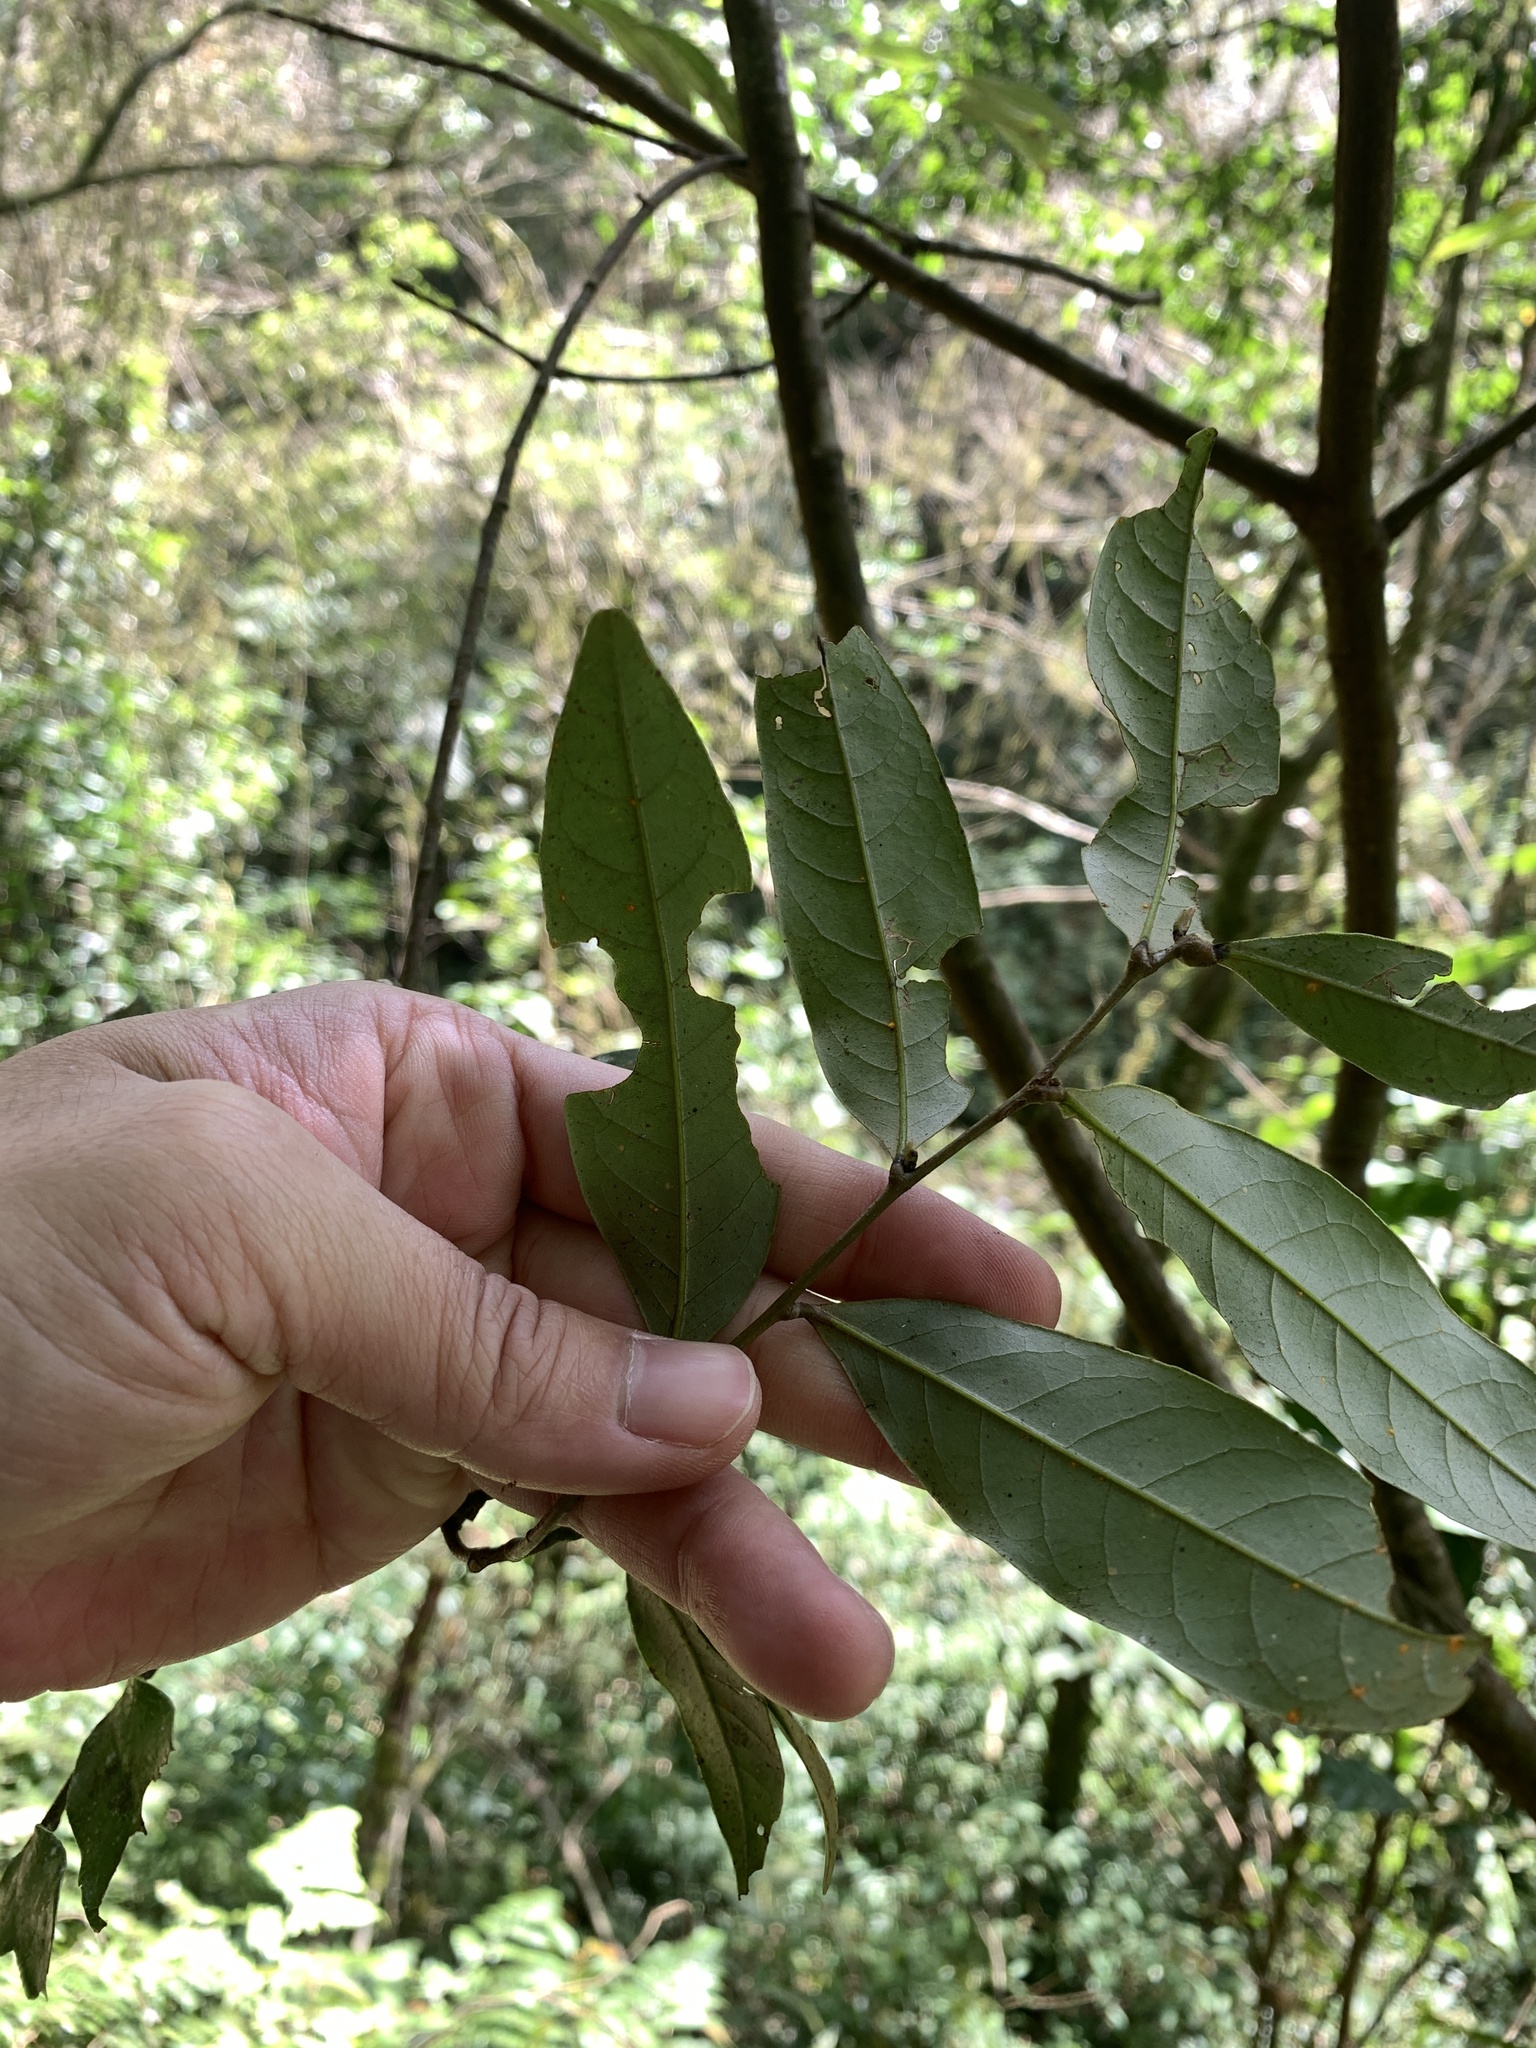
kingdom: Plantae
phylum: Tracheophyta
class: Magnoliopsida
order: Fagales
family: Fagaceae
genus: Castanopsis
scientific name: Castanopsis carlesii
